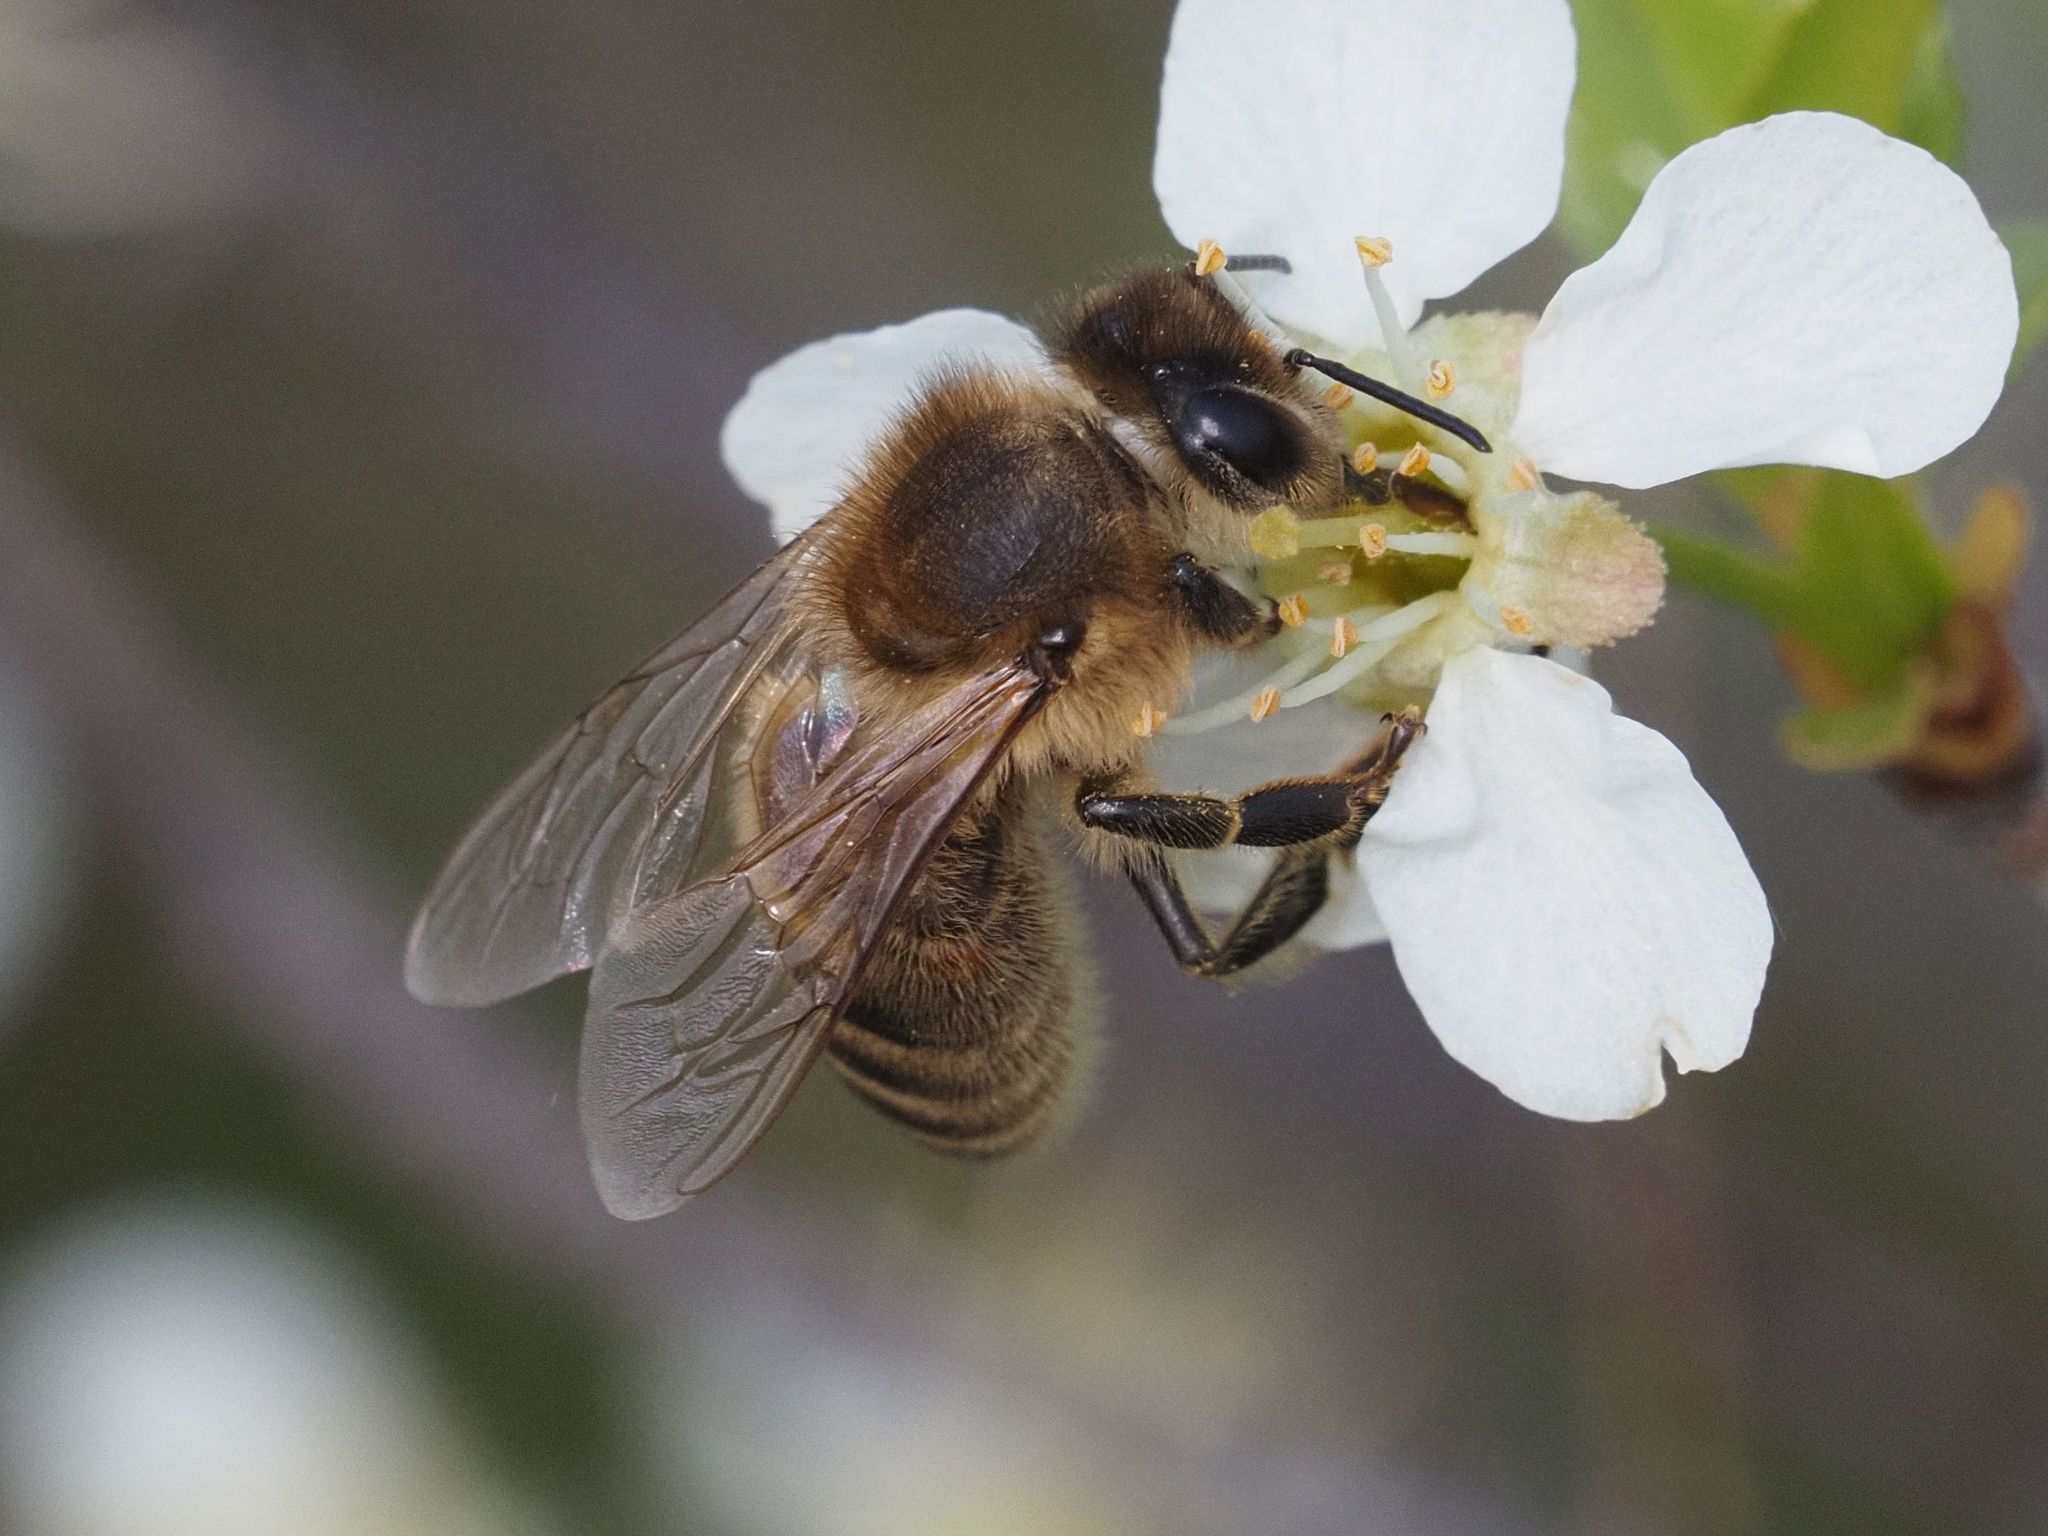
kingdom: Animalia
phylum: Arthropoda
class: Insecta
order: Hymenoptera
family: Apidae
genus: Apis
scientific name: Apis mellifera
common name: Honey bee
